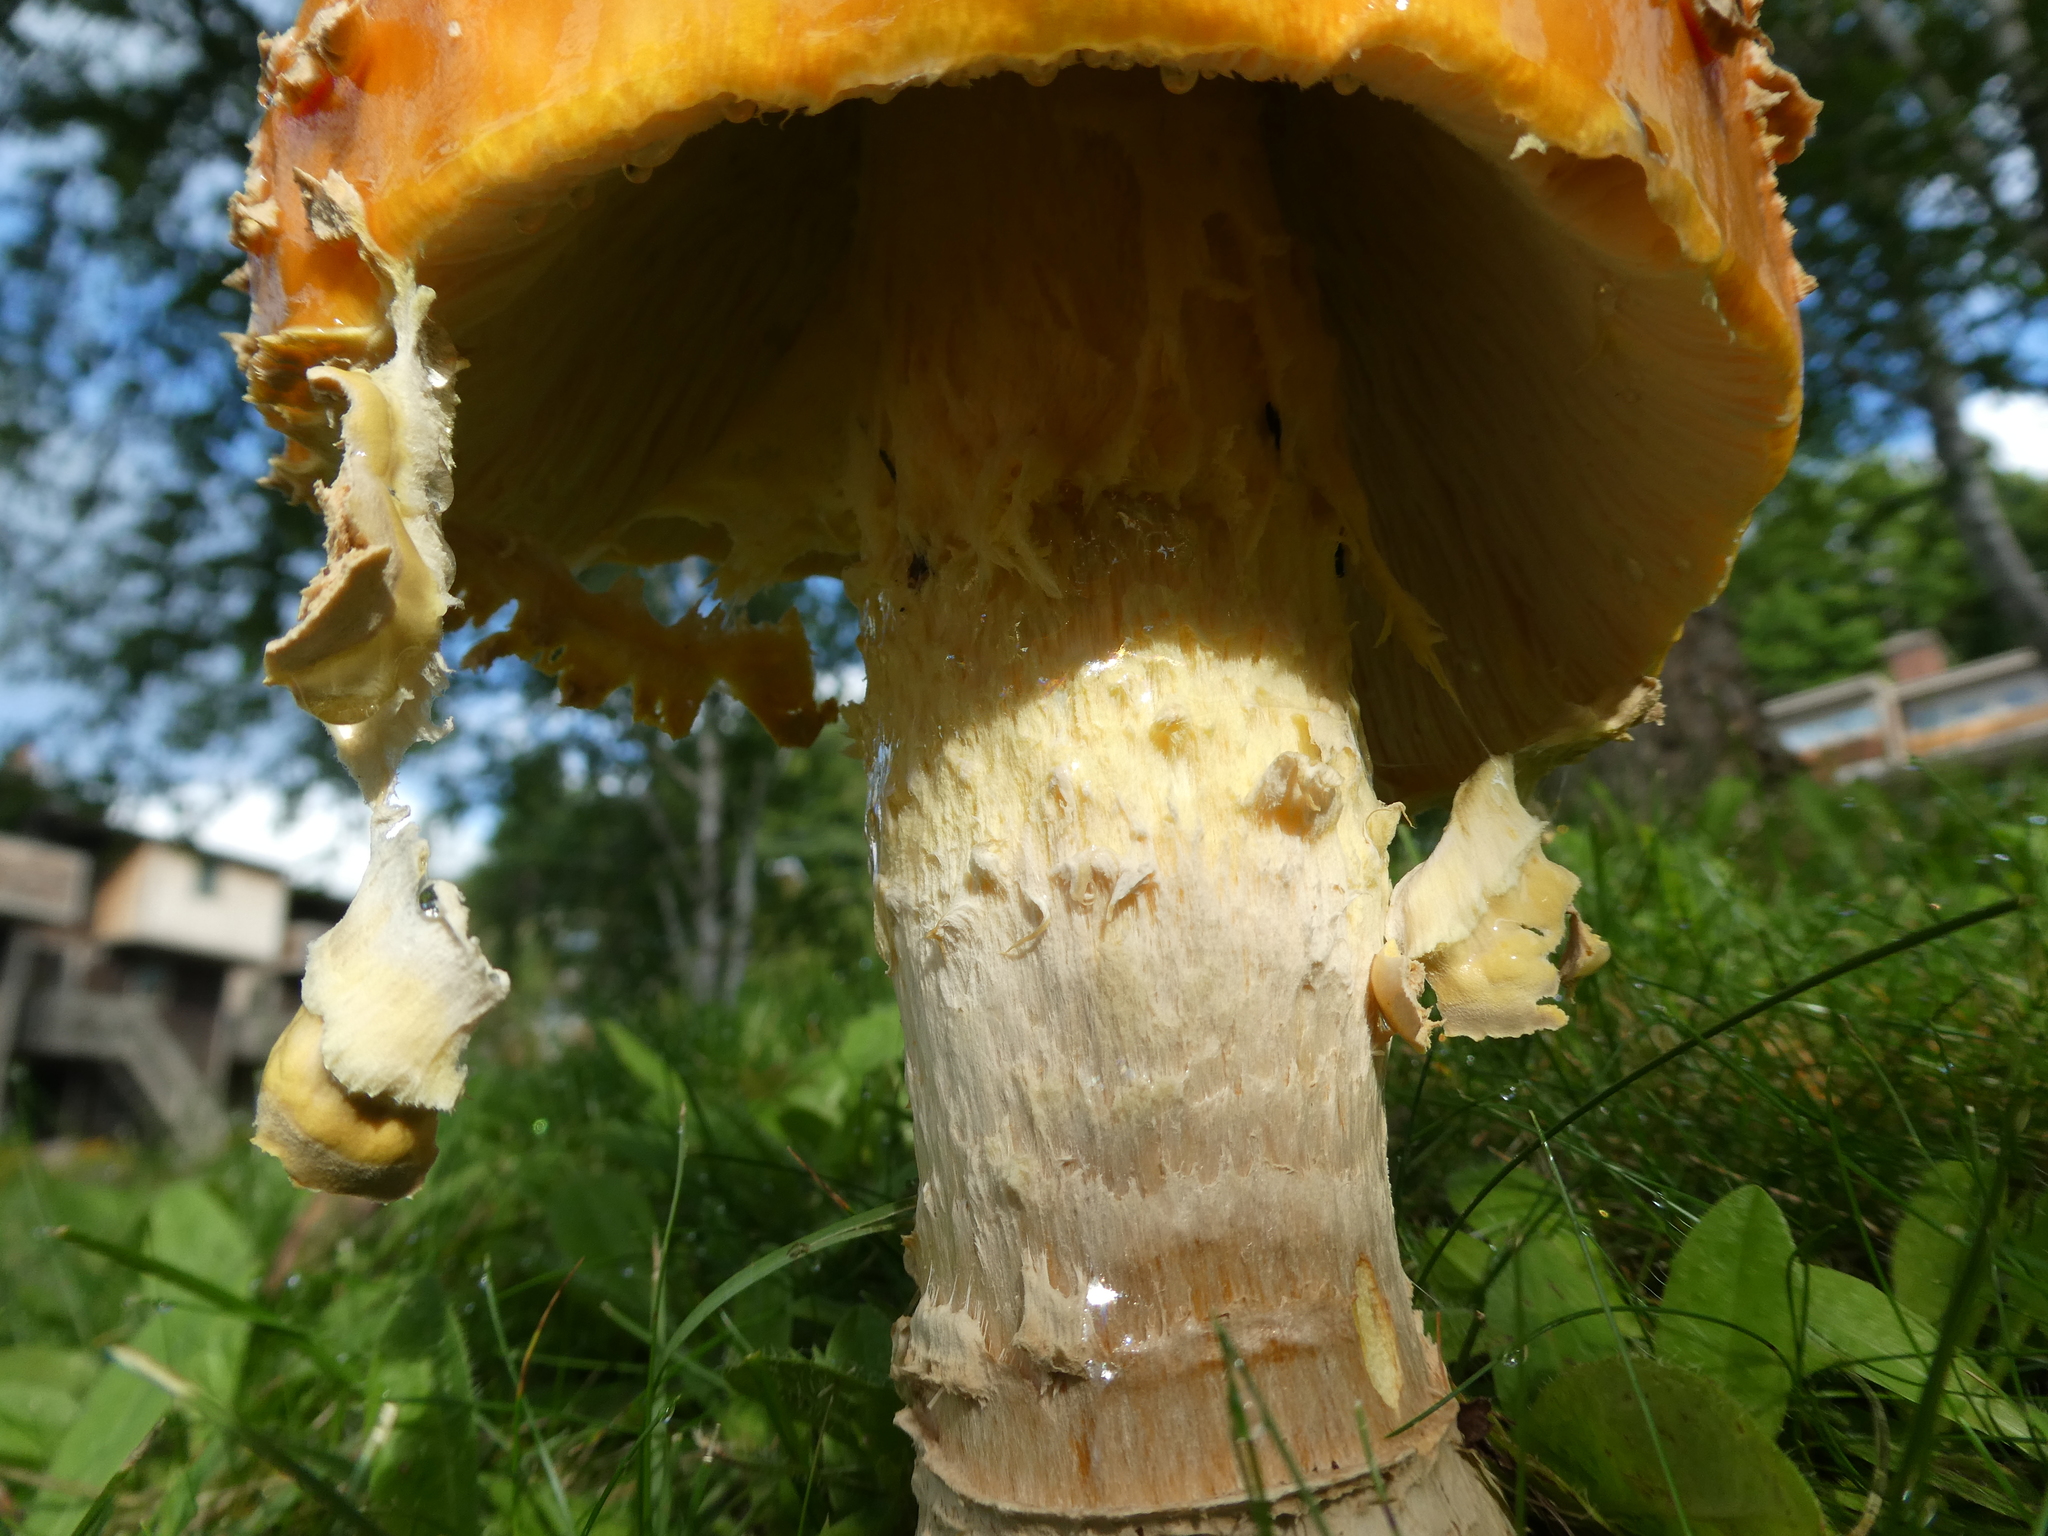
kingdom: Fungi
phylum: Basidiomycota
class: Agaricomycetes
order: Agaricales
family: Amanitaceae
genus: Amanita
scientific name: Amanita muscaria
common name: Fly agaric
